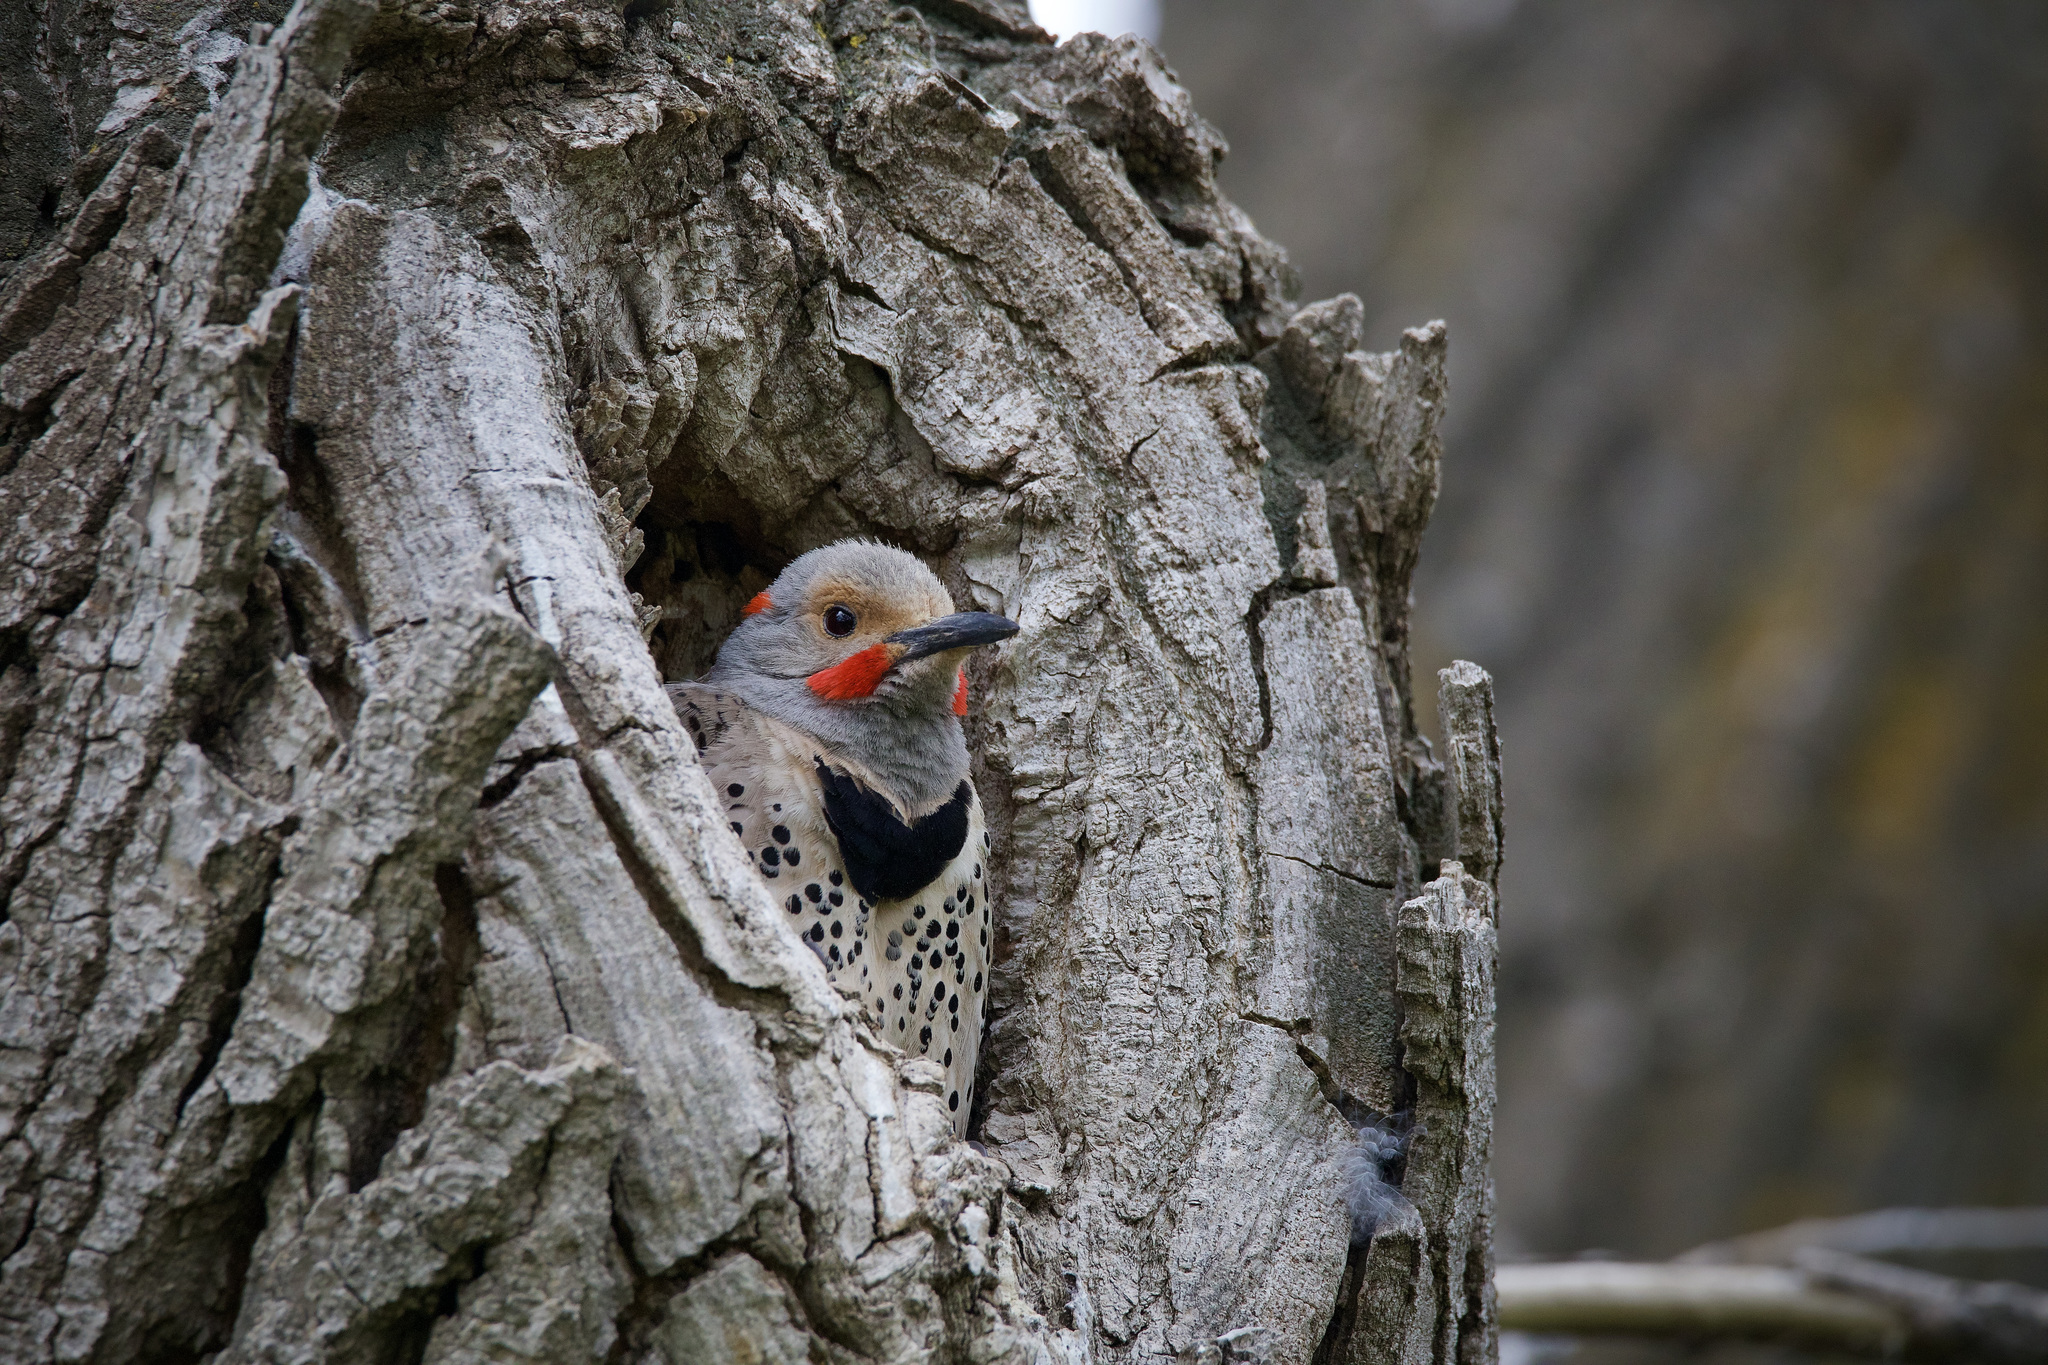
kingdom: Animalia
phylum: Chordata
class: Aves
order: Piciformes
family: Picidae
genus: Colaptes
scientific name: Colaptes auratus
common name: Northern flicker
